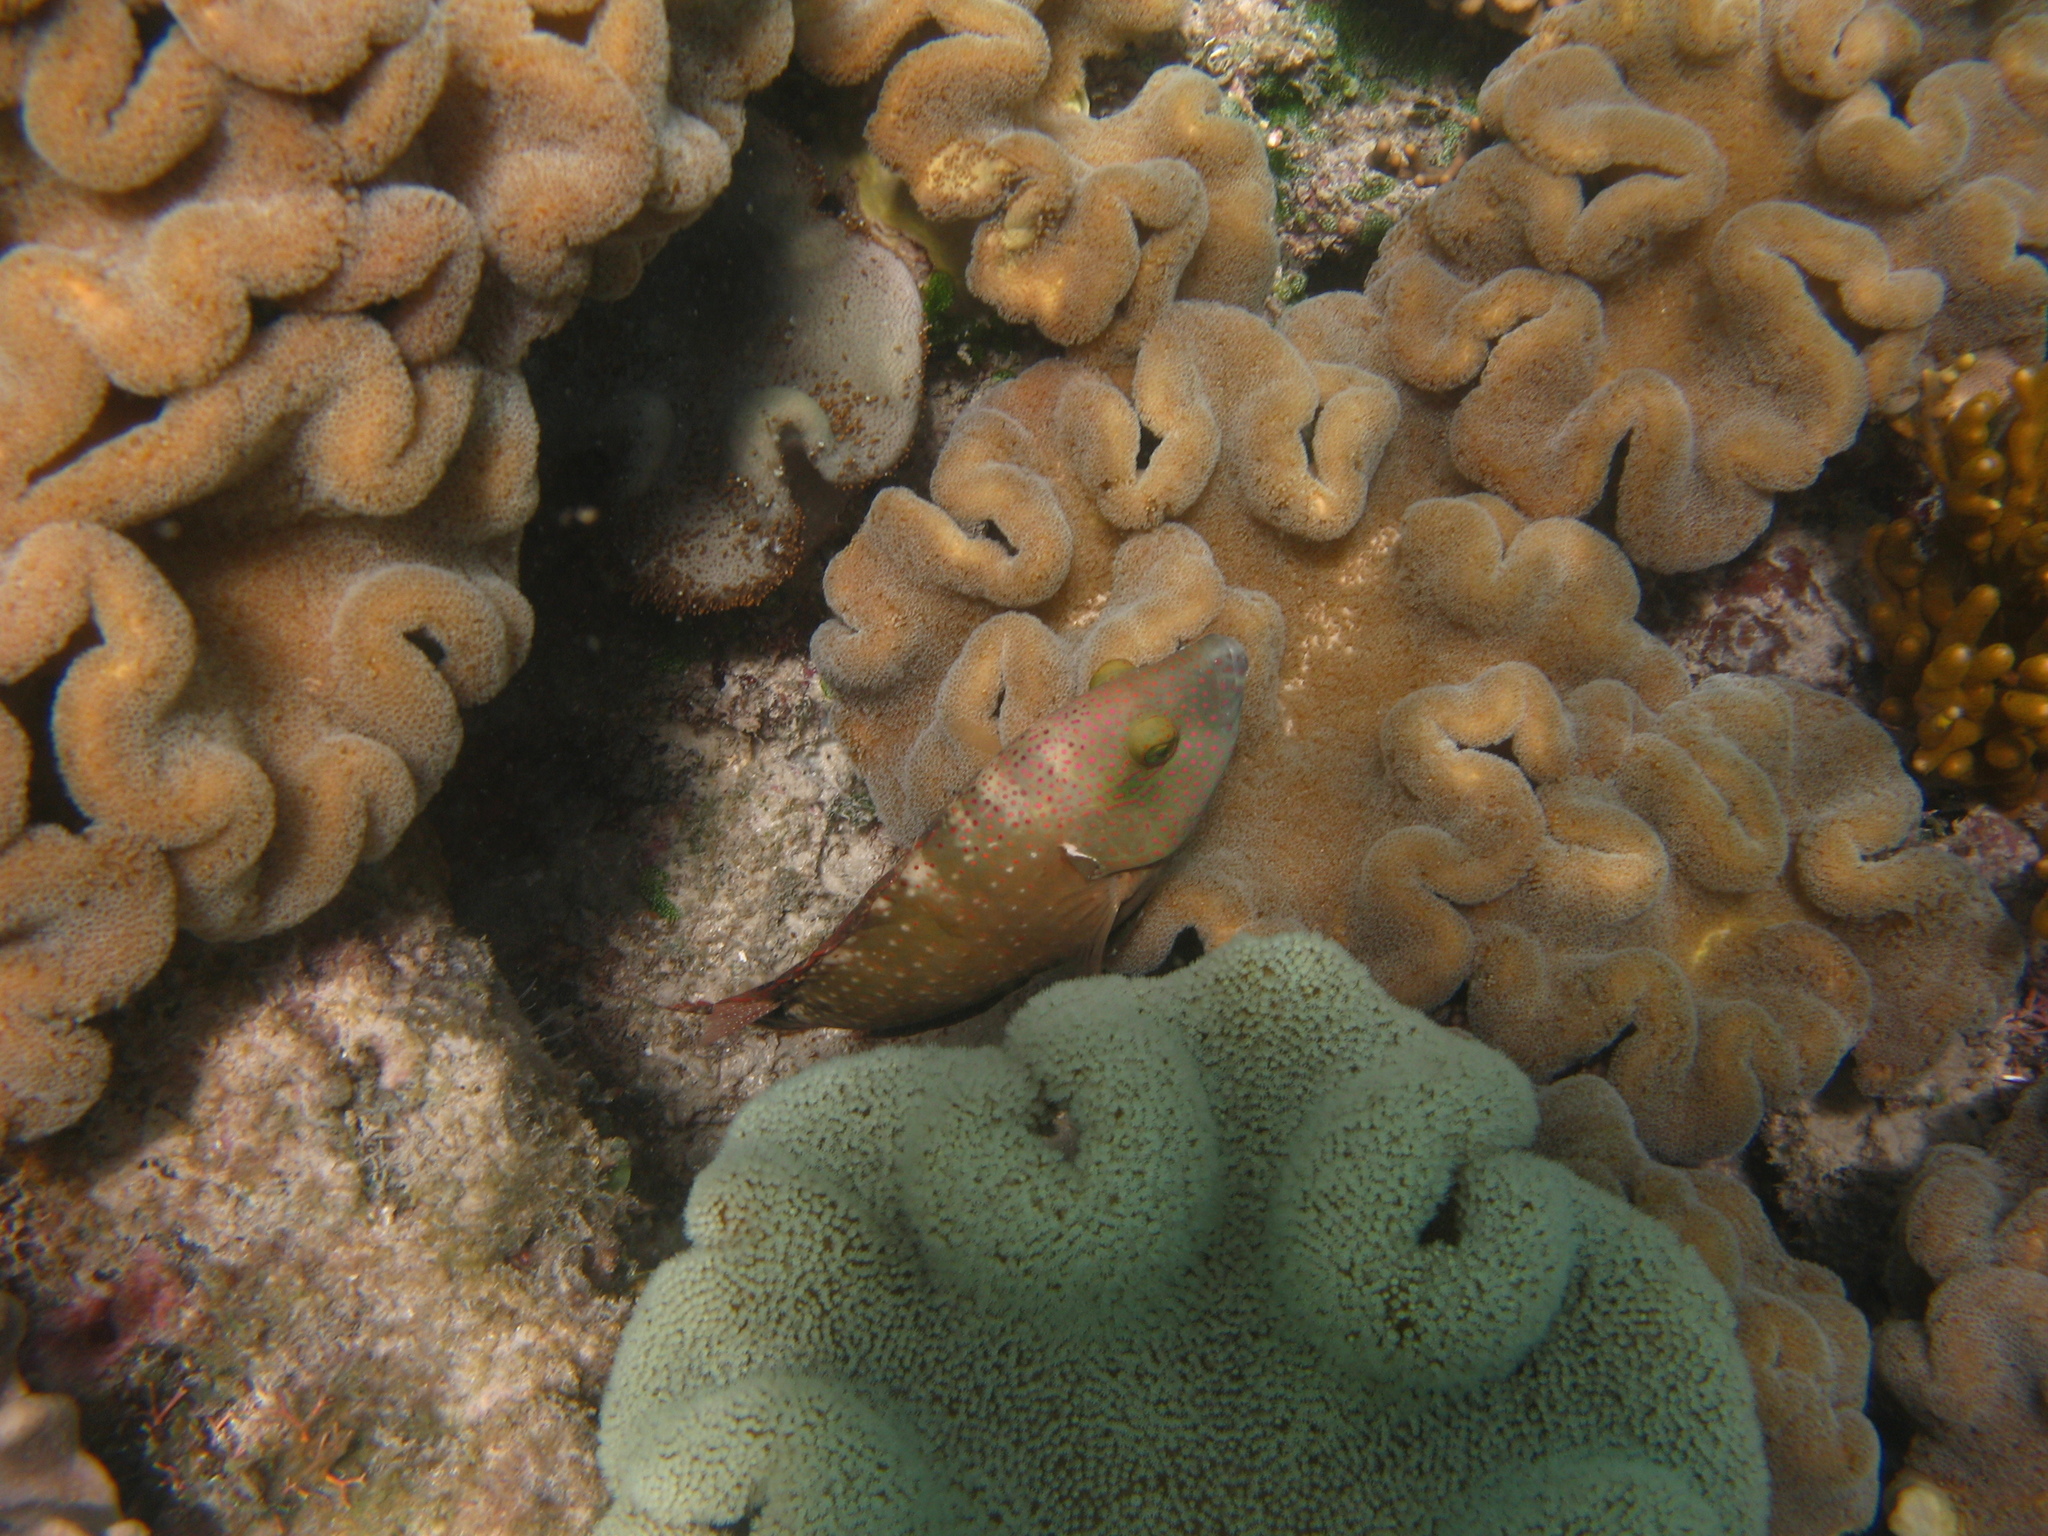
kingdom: Animalia
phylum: Chordata
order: Perciformes
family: Labridae
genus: Cheilinus
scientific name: Cheilinus chlorourus
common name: Floral wrasse
